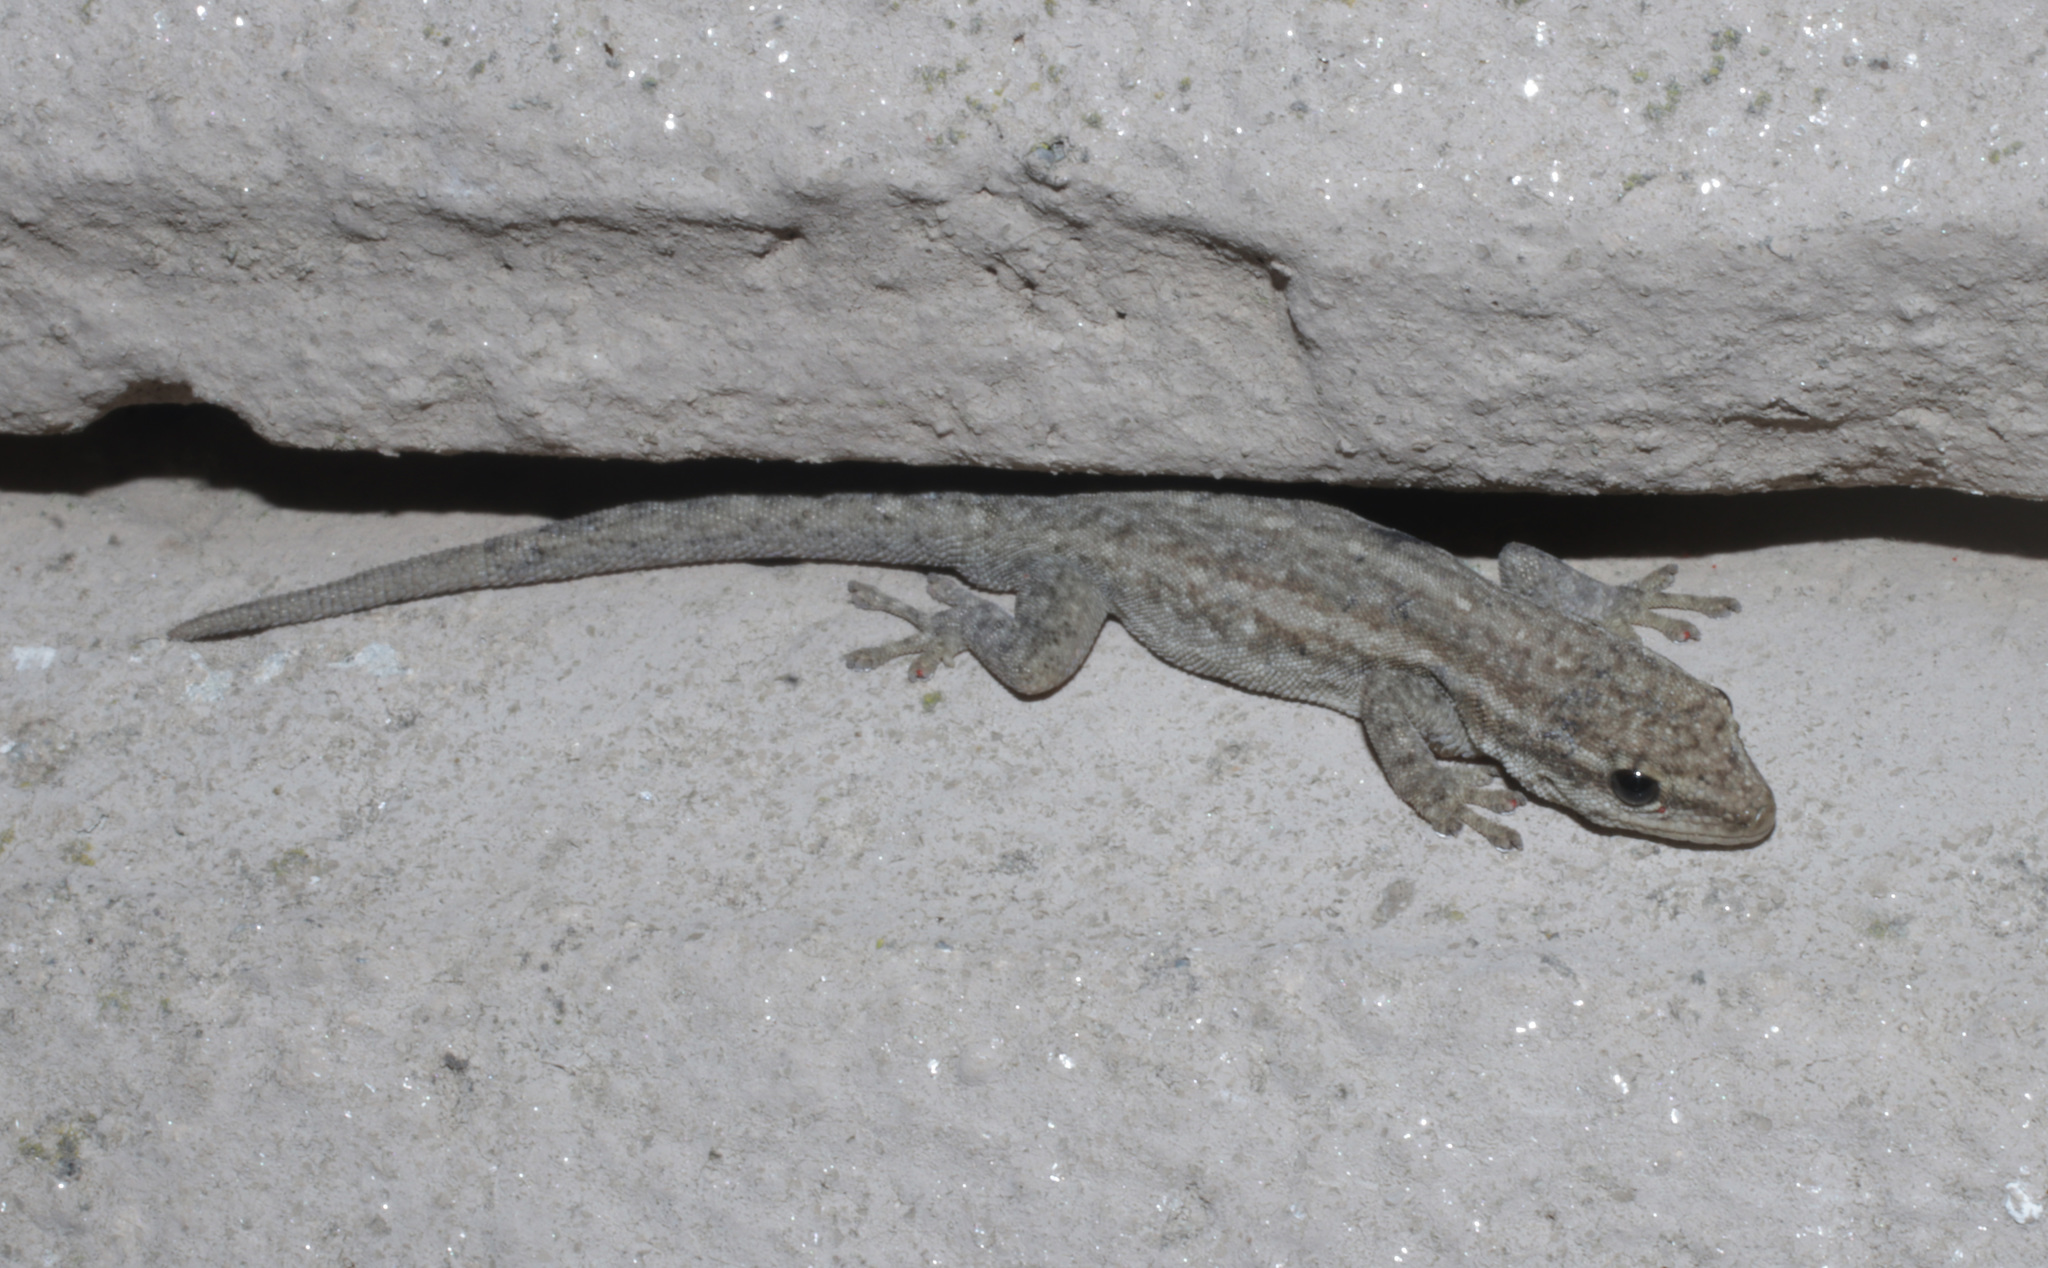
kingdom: Animalia
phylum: Chordata
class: Squamata
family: Gekkonidae
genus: Lygodactylus
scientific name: Lygodactylus capensis
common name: Cape dwarf gecko
